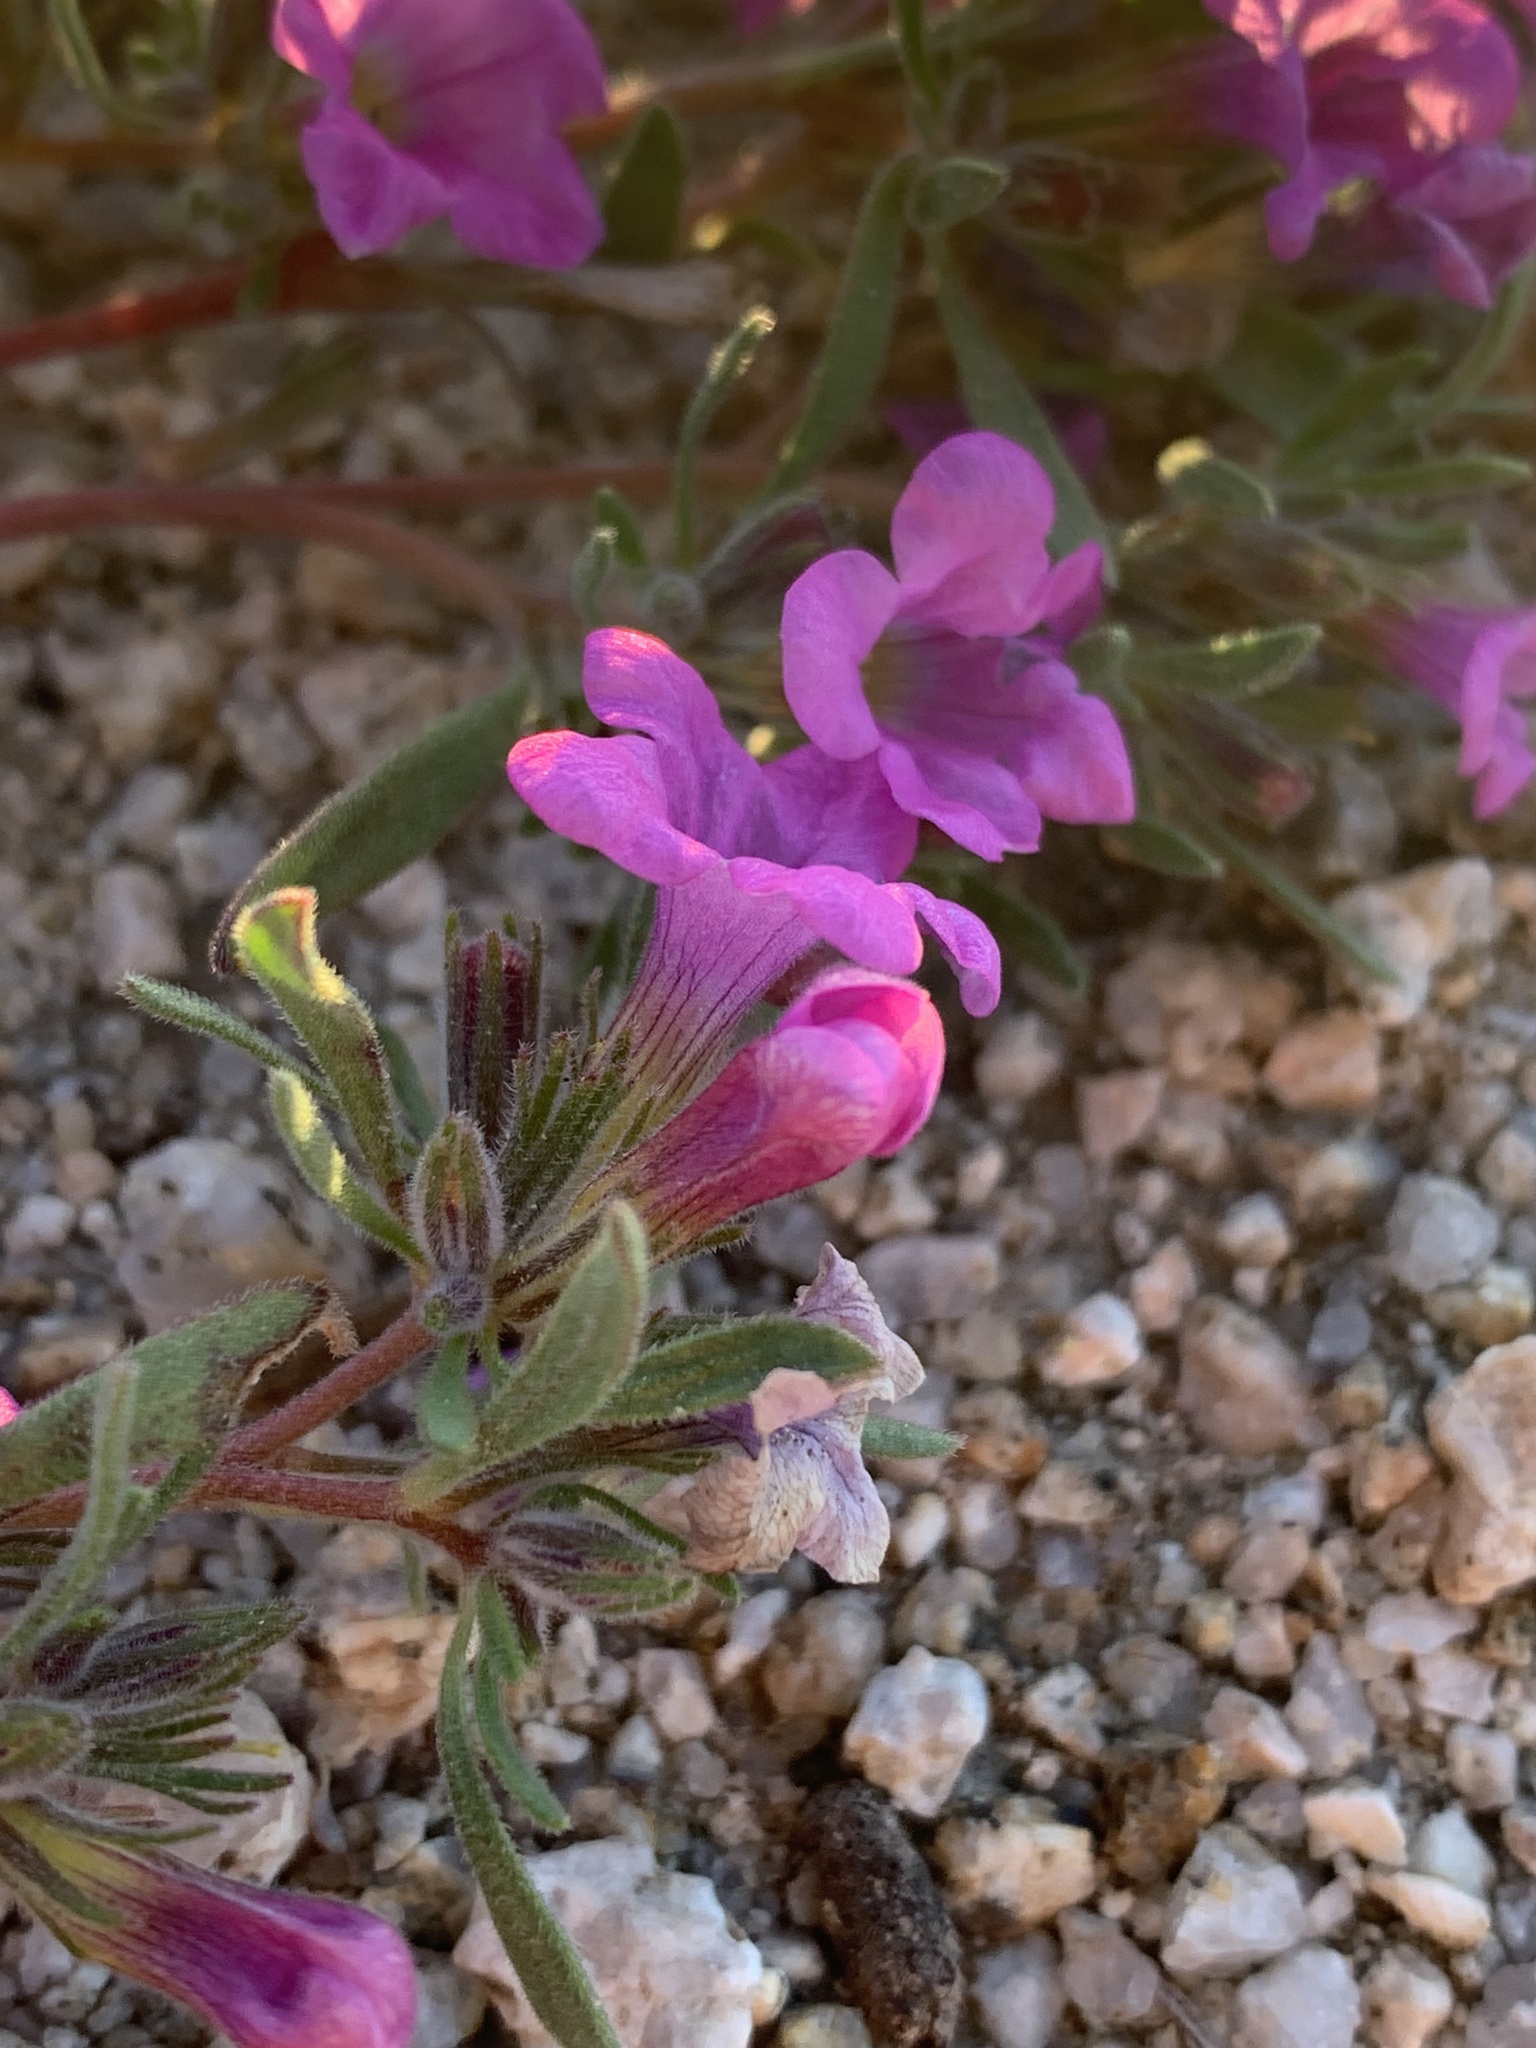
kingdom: Plantae
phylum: Tracheophyta
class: Magnoliopsida
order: Boraginales
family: Namaceae
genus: Nama
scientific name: Nama demissa
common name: Leafy nama
